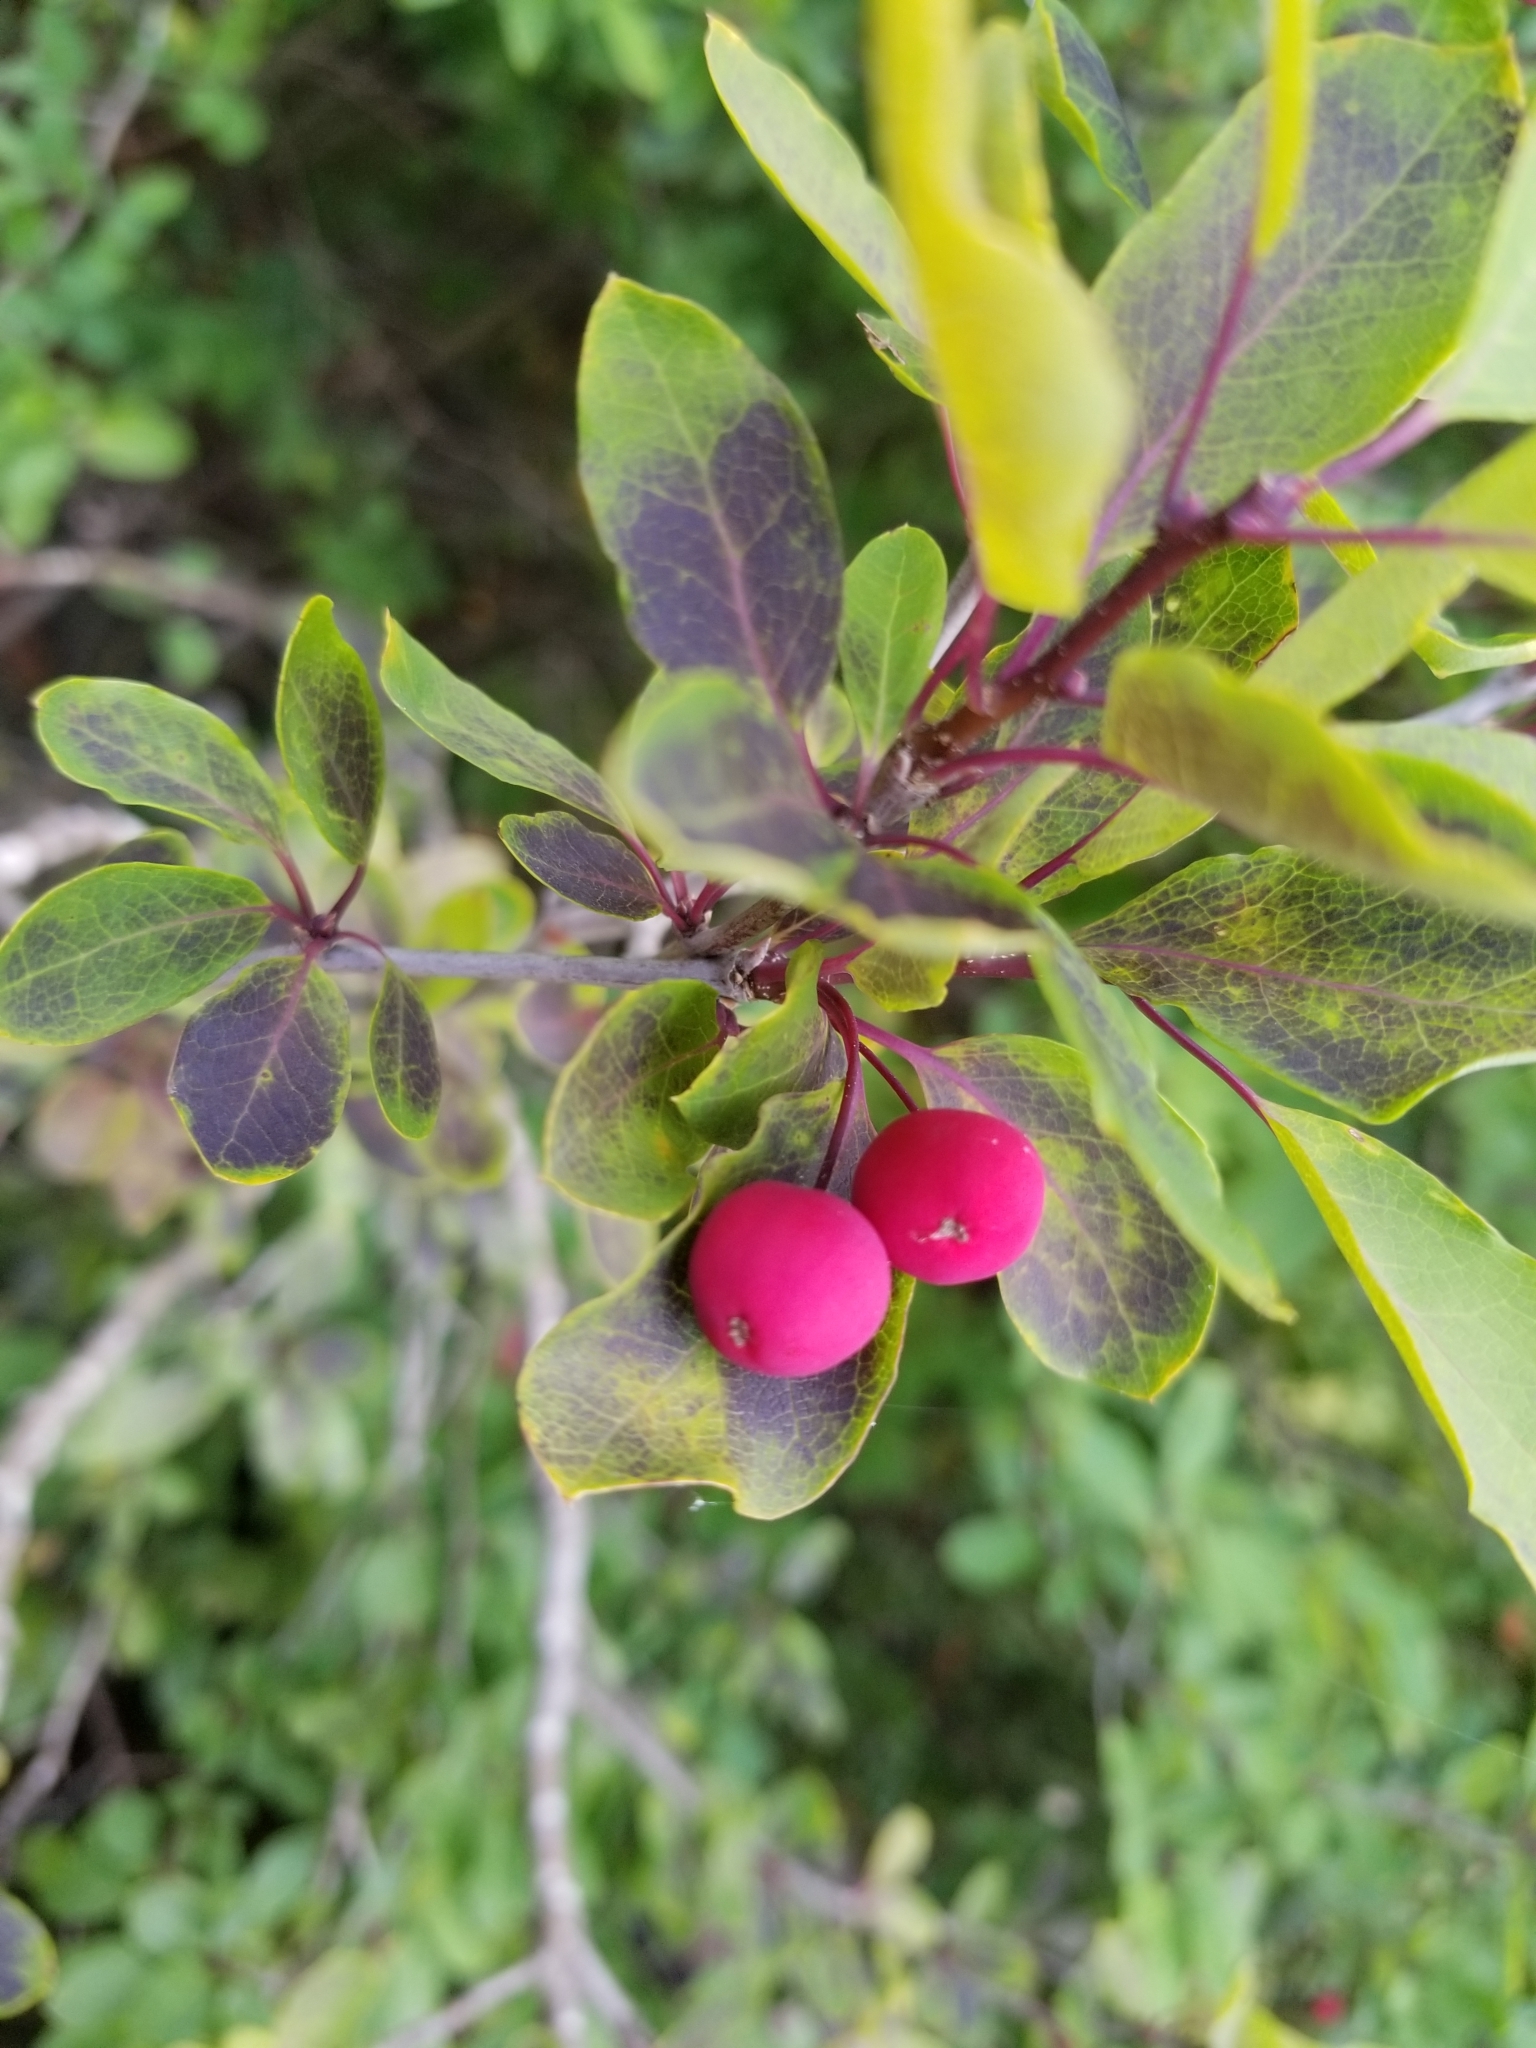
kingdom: Plantae
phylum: Tracheophyta
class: Magnoliopsida
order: Aquifoliales
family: Aquifoliaceae
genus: Ilex
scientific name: Ilex mucronata
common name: Catberry
